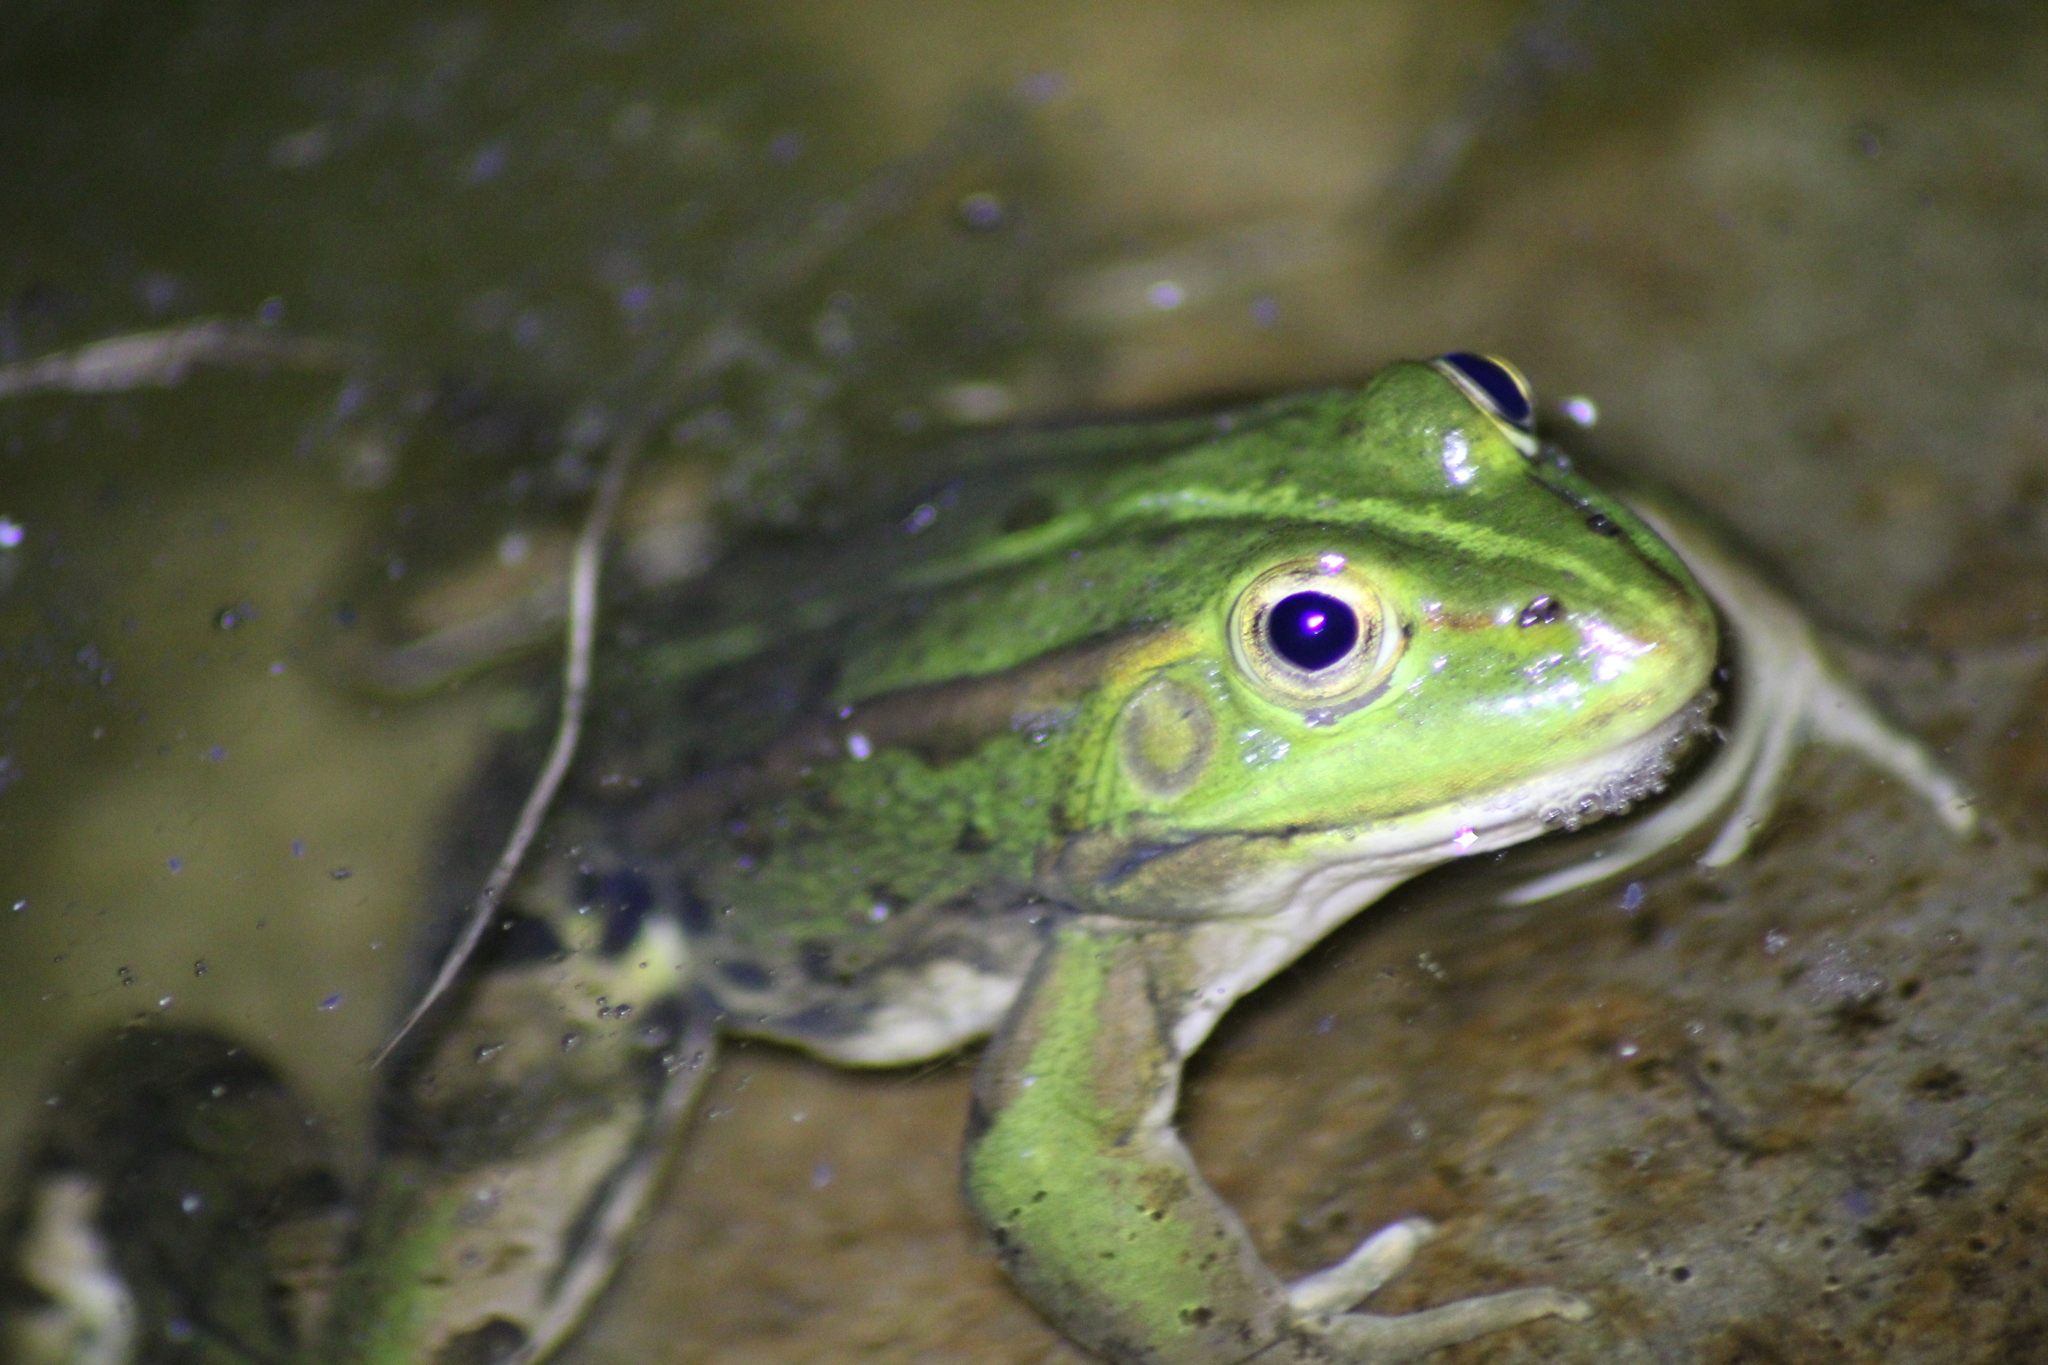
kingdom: Animalia
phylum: Chordata
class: Amphibia
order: Anura
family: Ranidae
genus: Pelophylax
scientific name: Pelophylax
